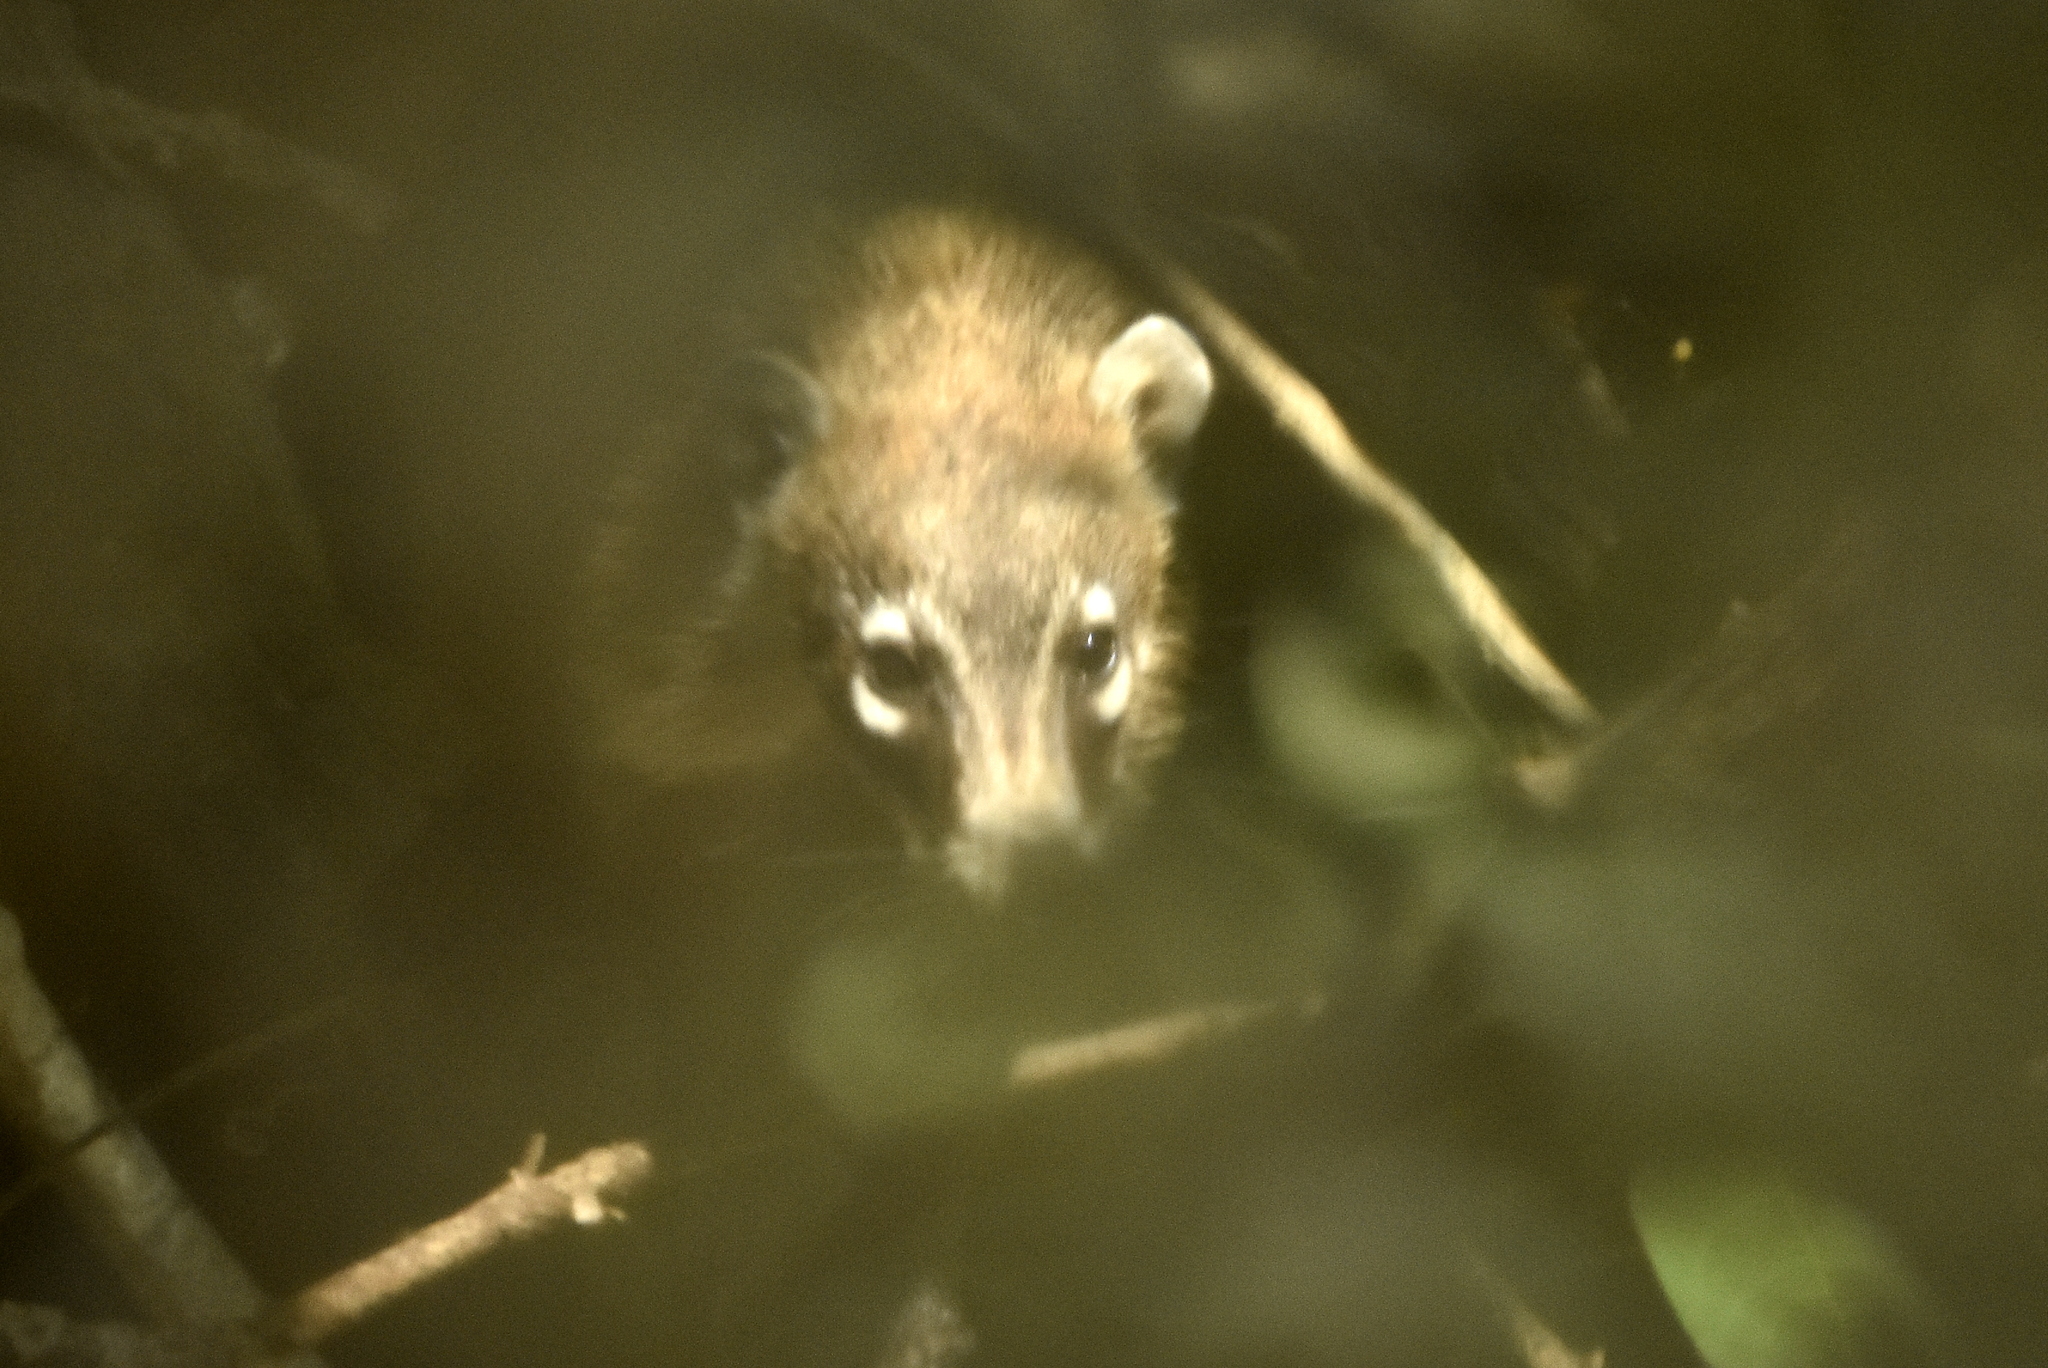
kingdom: Animalia
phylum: Chordata
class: Mammalia
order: Carnivora
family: Procyonidae
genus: Nasua
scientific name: Nasua narica
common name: White-nosed coati
